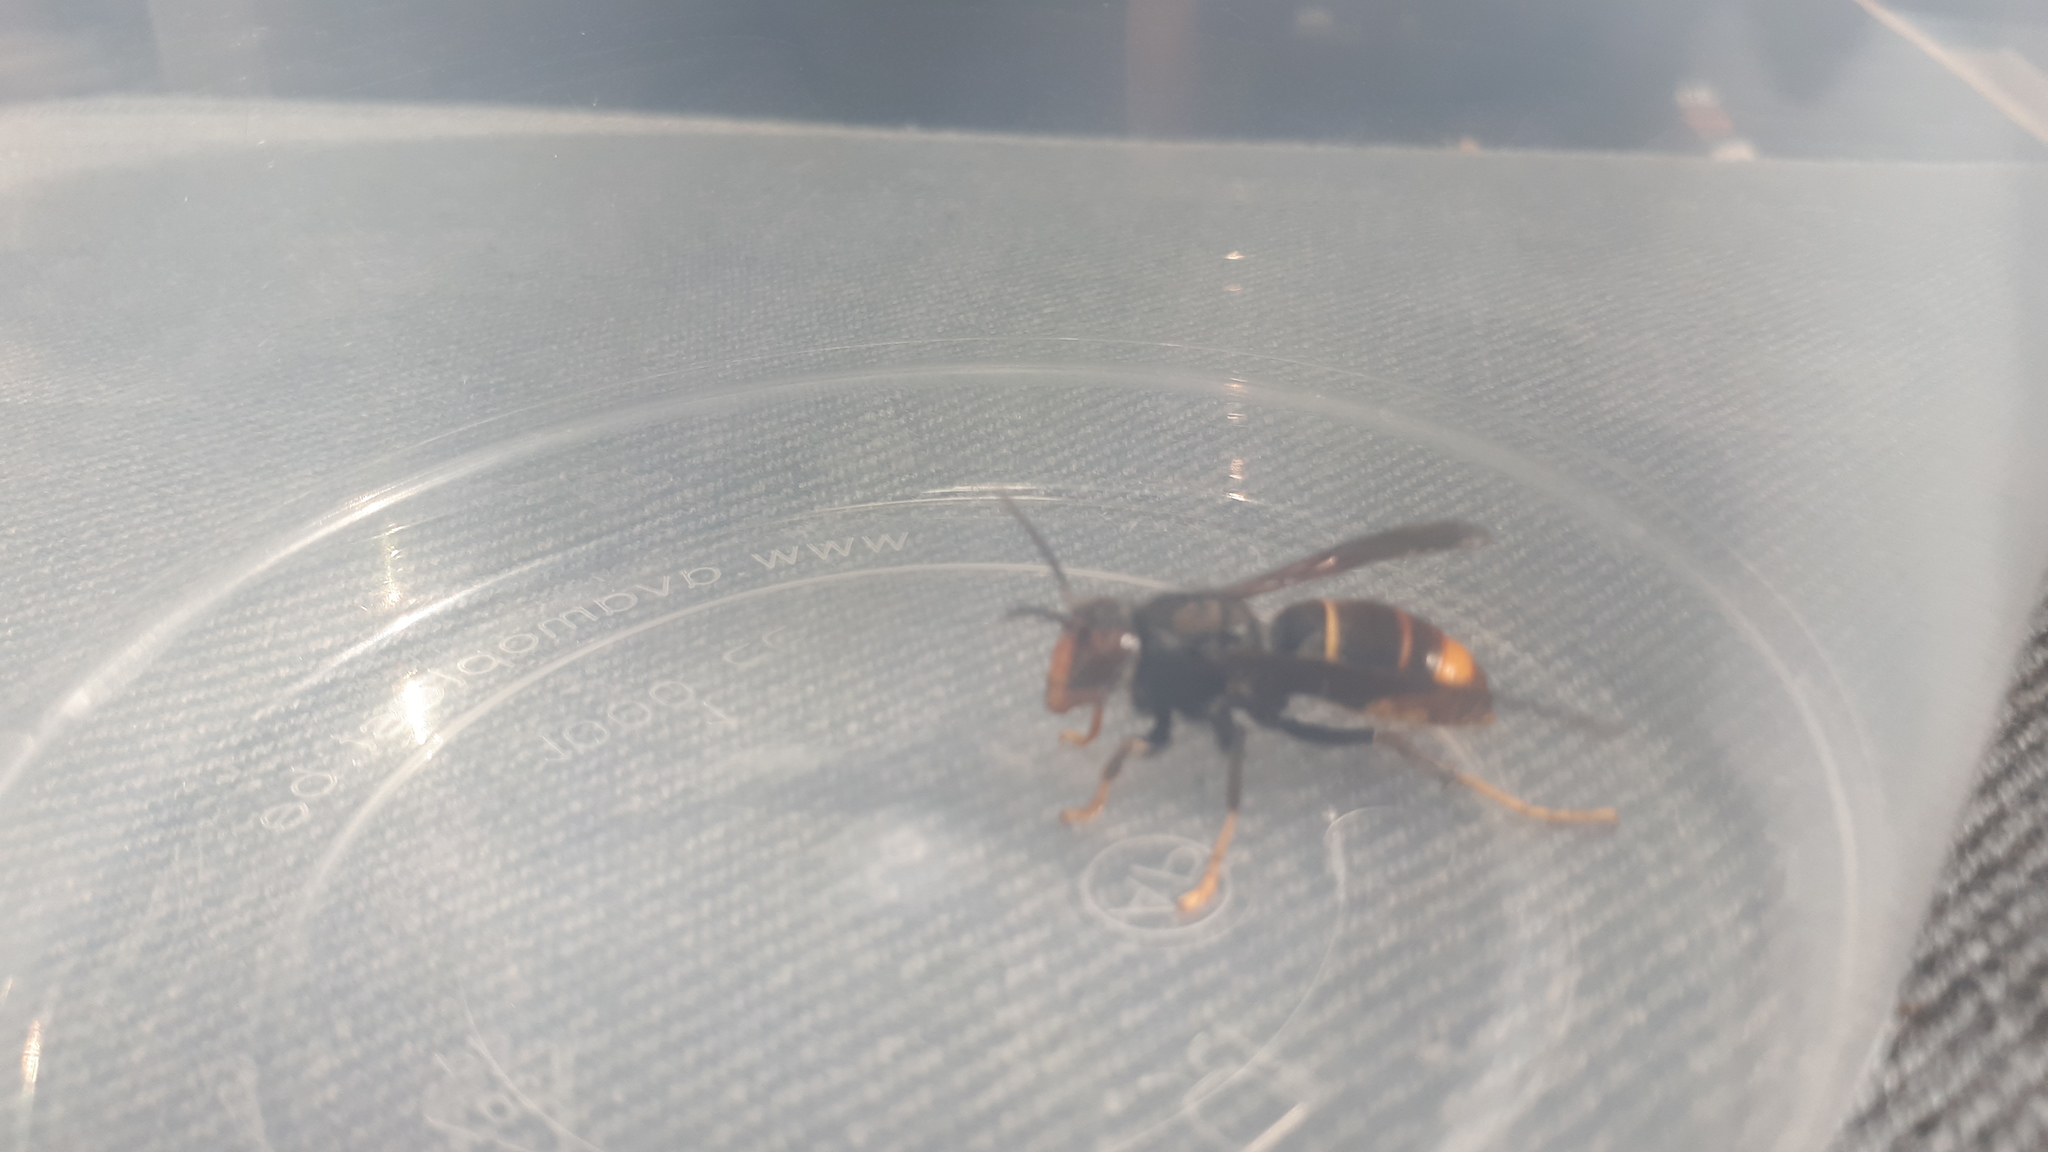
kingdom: Animalia
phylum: Arthropoda
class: Insecta
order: Hymenoptera
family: Vespidae
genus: Vespa
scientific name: Vespa velutina
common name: Asian hornet
